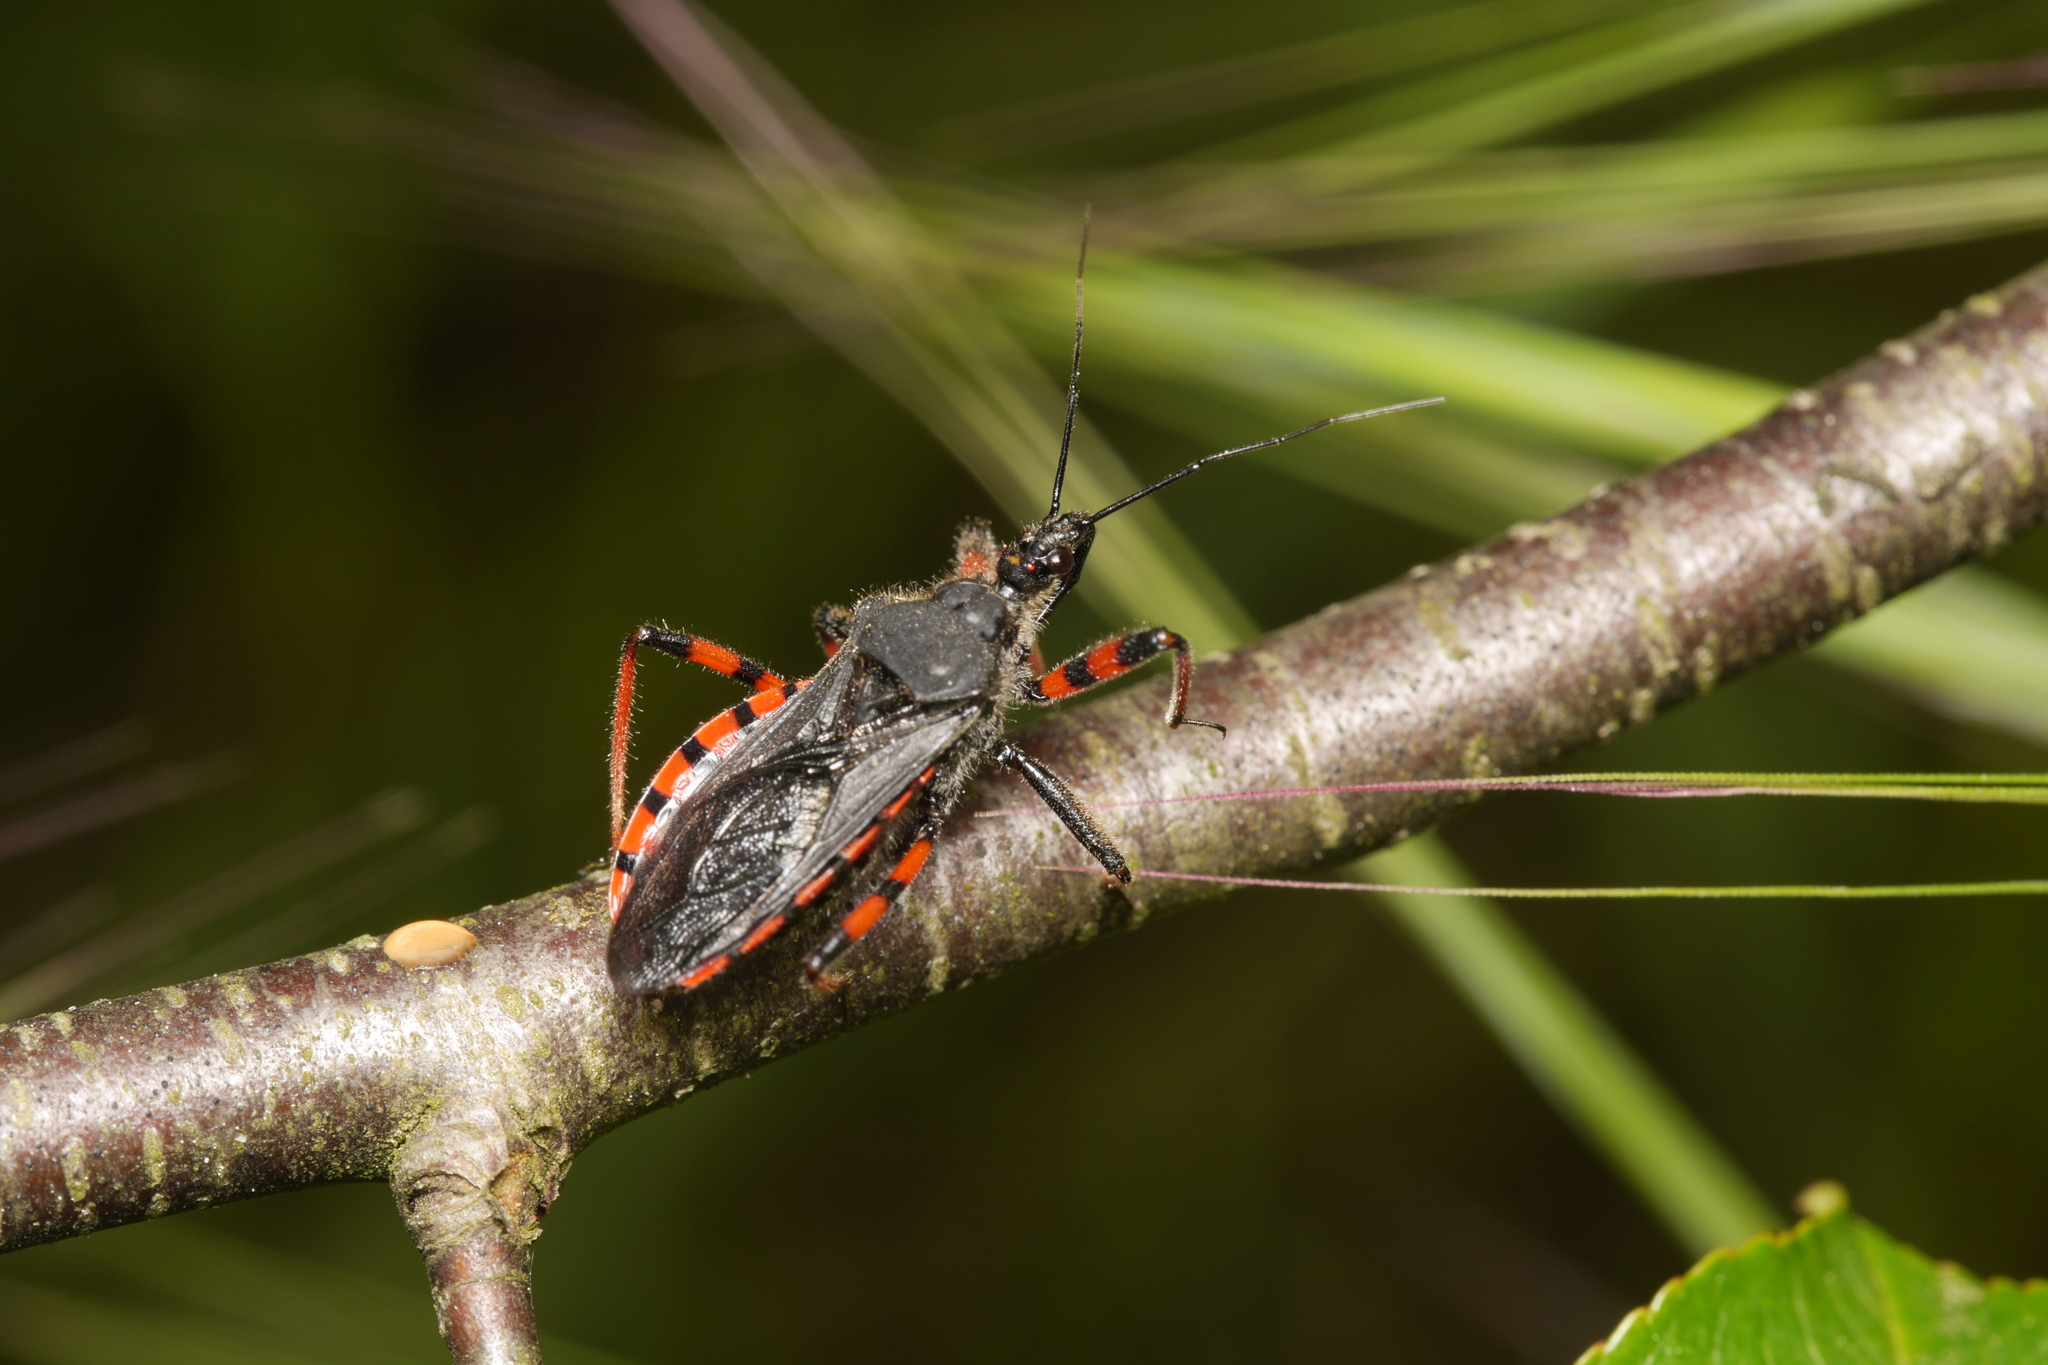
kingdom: Animalia
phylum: Arthropoda
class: Insecta
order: Hemiptera
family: Reduviidae
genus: Rhynocoris
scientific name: Rhynocoris annulatus
